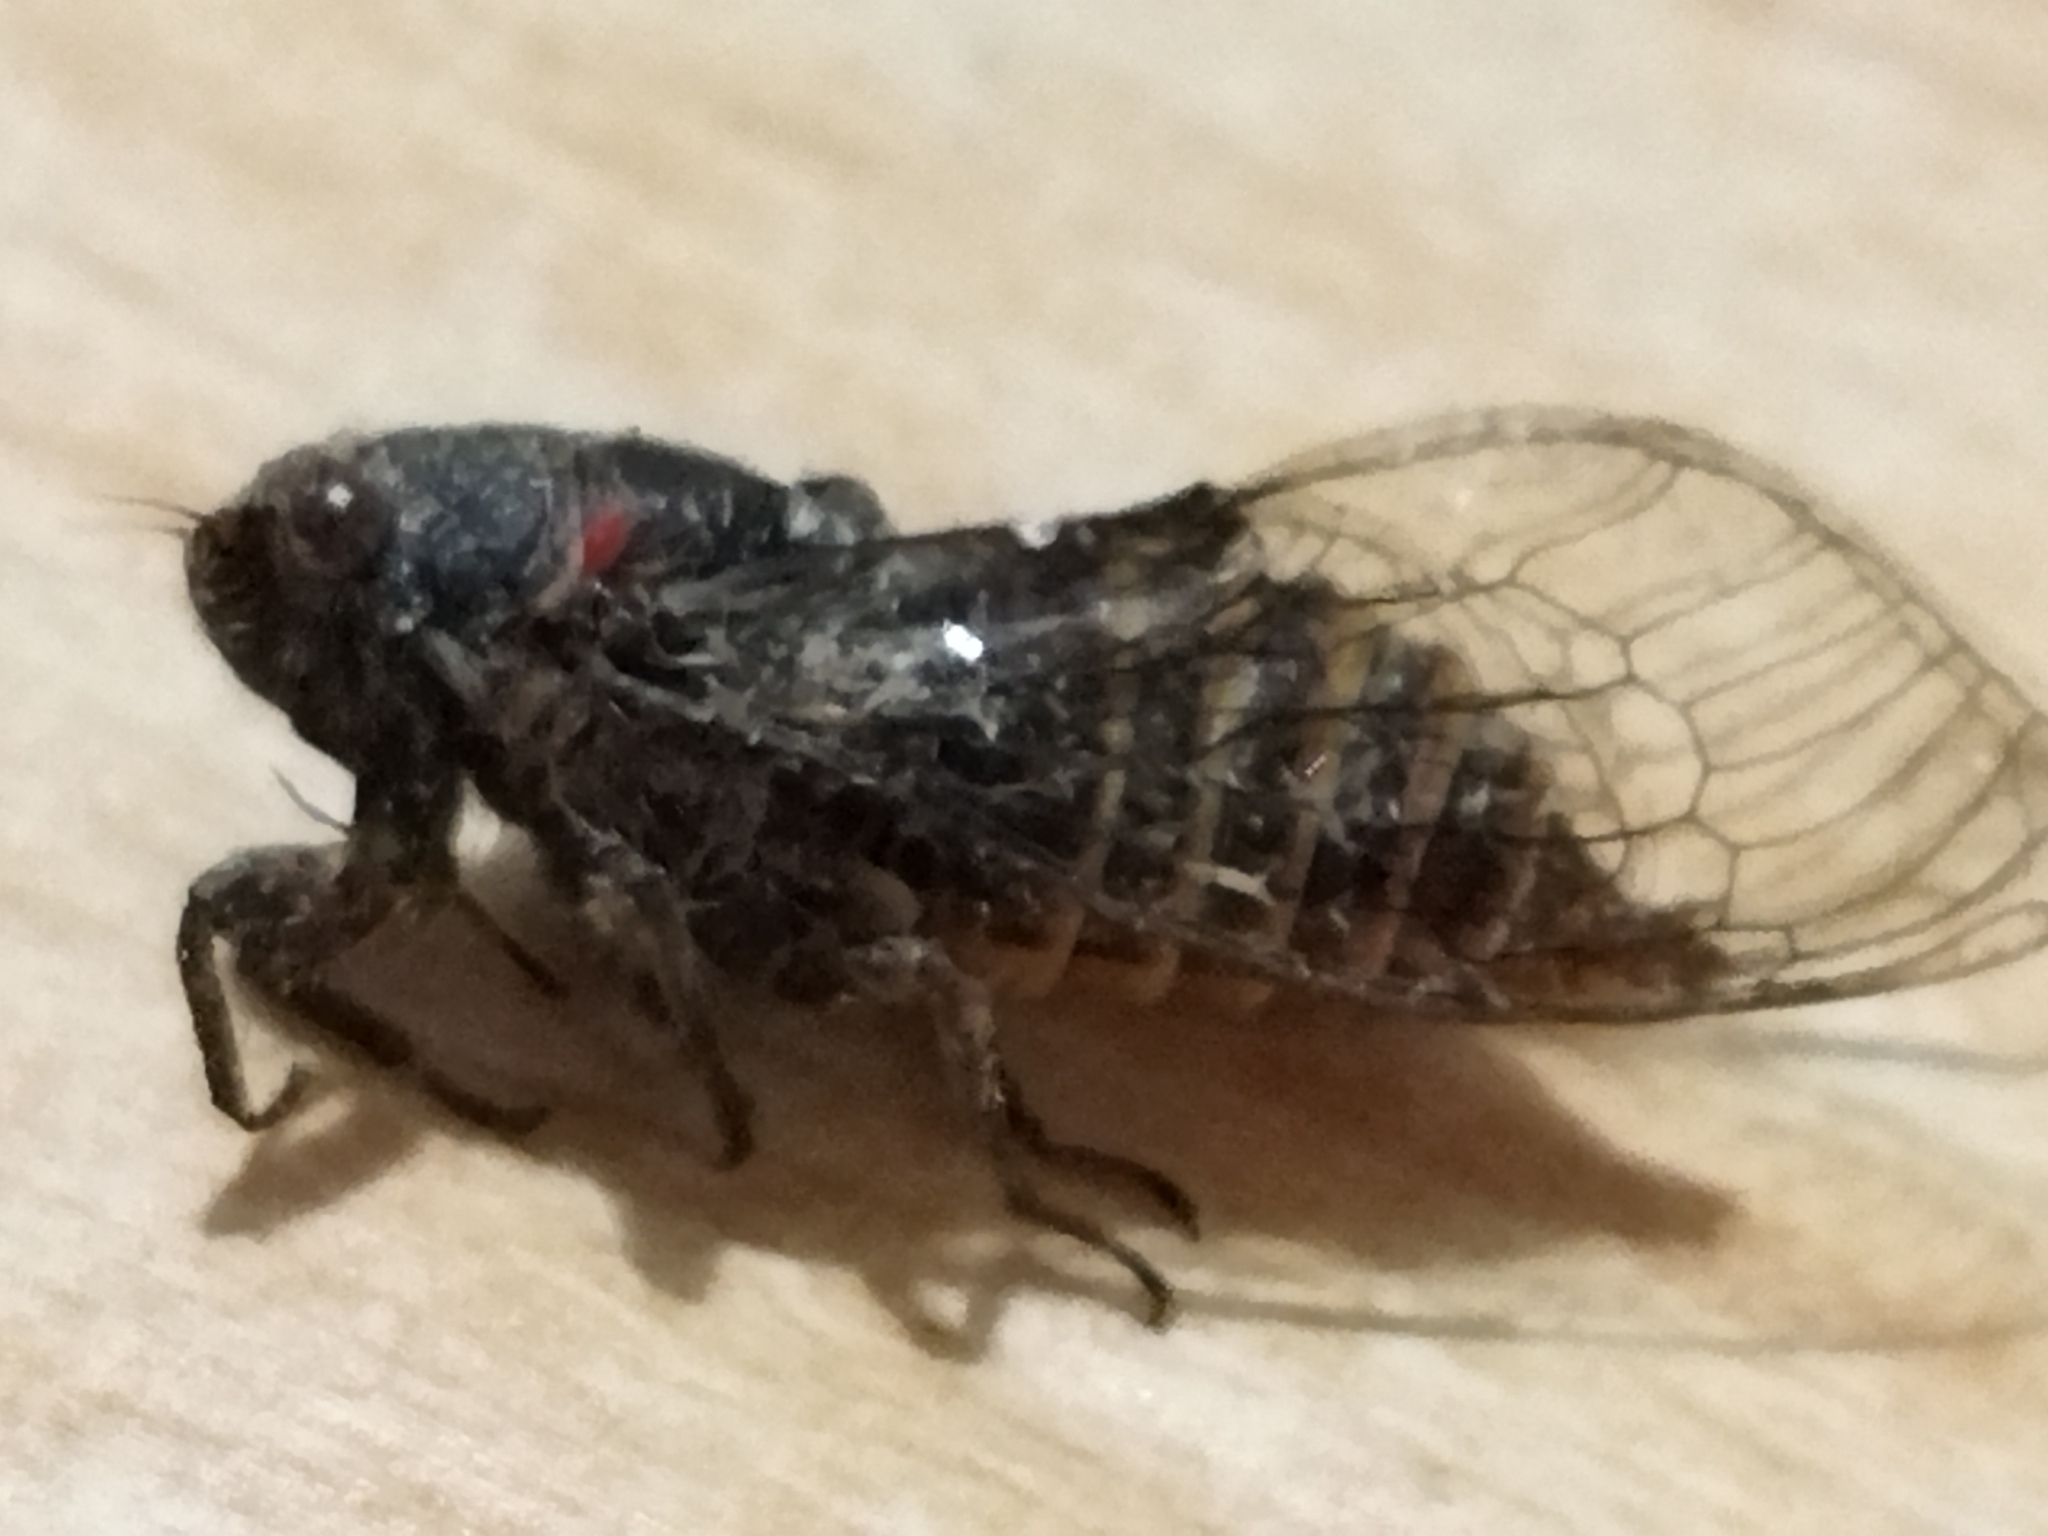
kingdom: Animalia
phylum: Arthropoda
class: Insecta
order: Hemiptera
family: Cicadidae
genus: Pagiphora
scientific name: Pagiphora annulata
